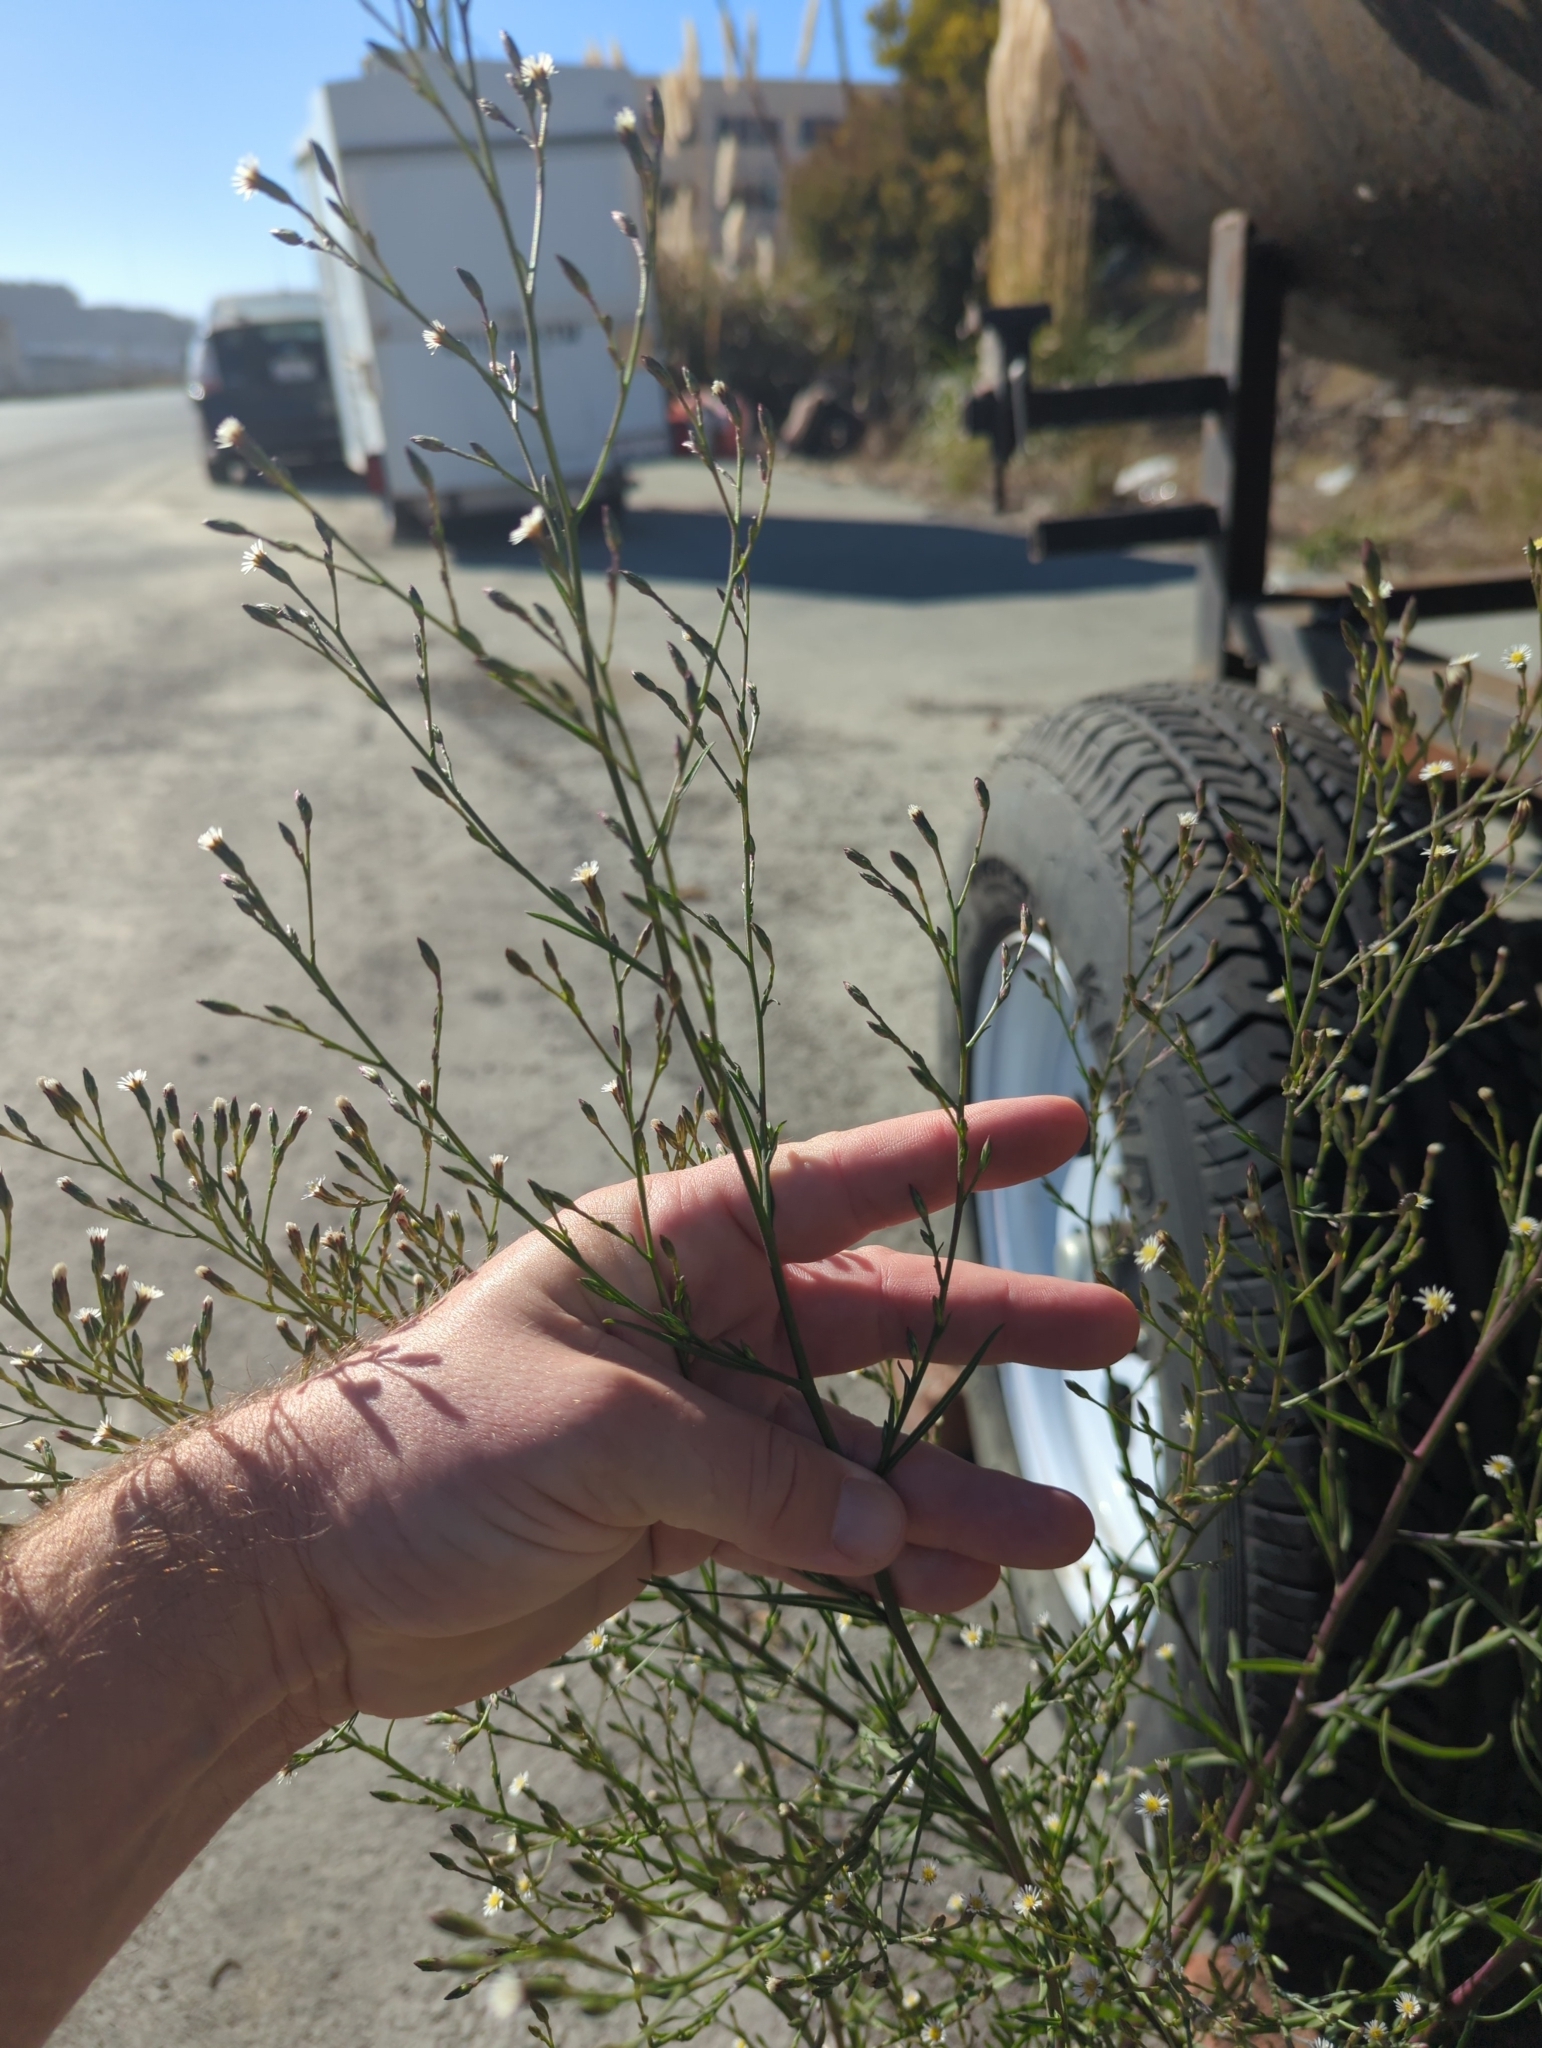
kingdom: Plantae
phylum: Tracheophyta
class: Magnoliopsida
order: Asterales
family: Asteraceae
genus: Symphyotrichum
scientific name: Symphyotrichum squamatum
